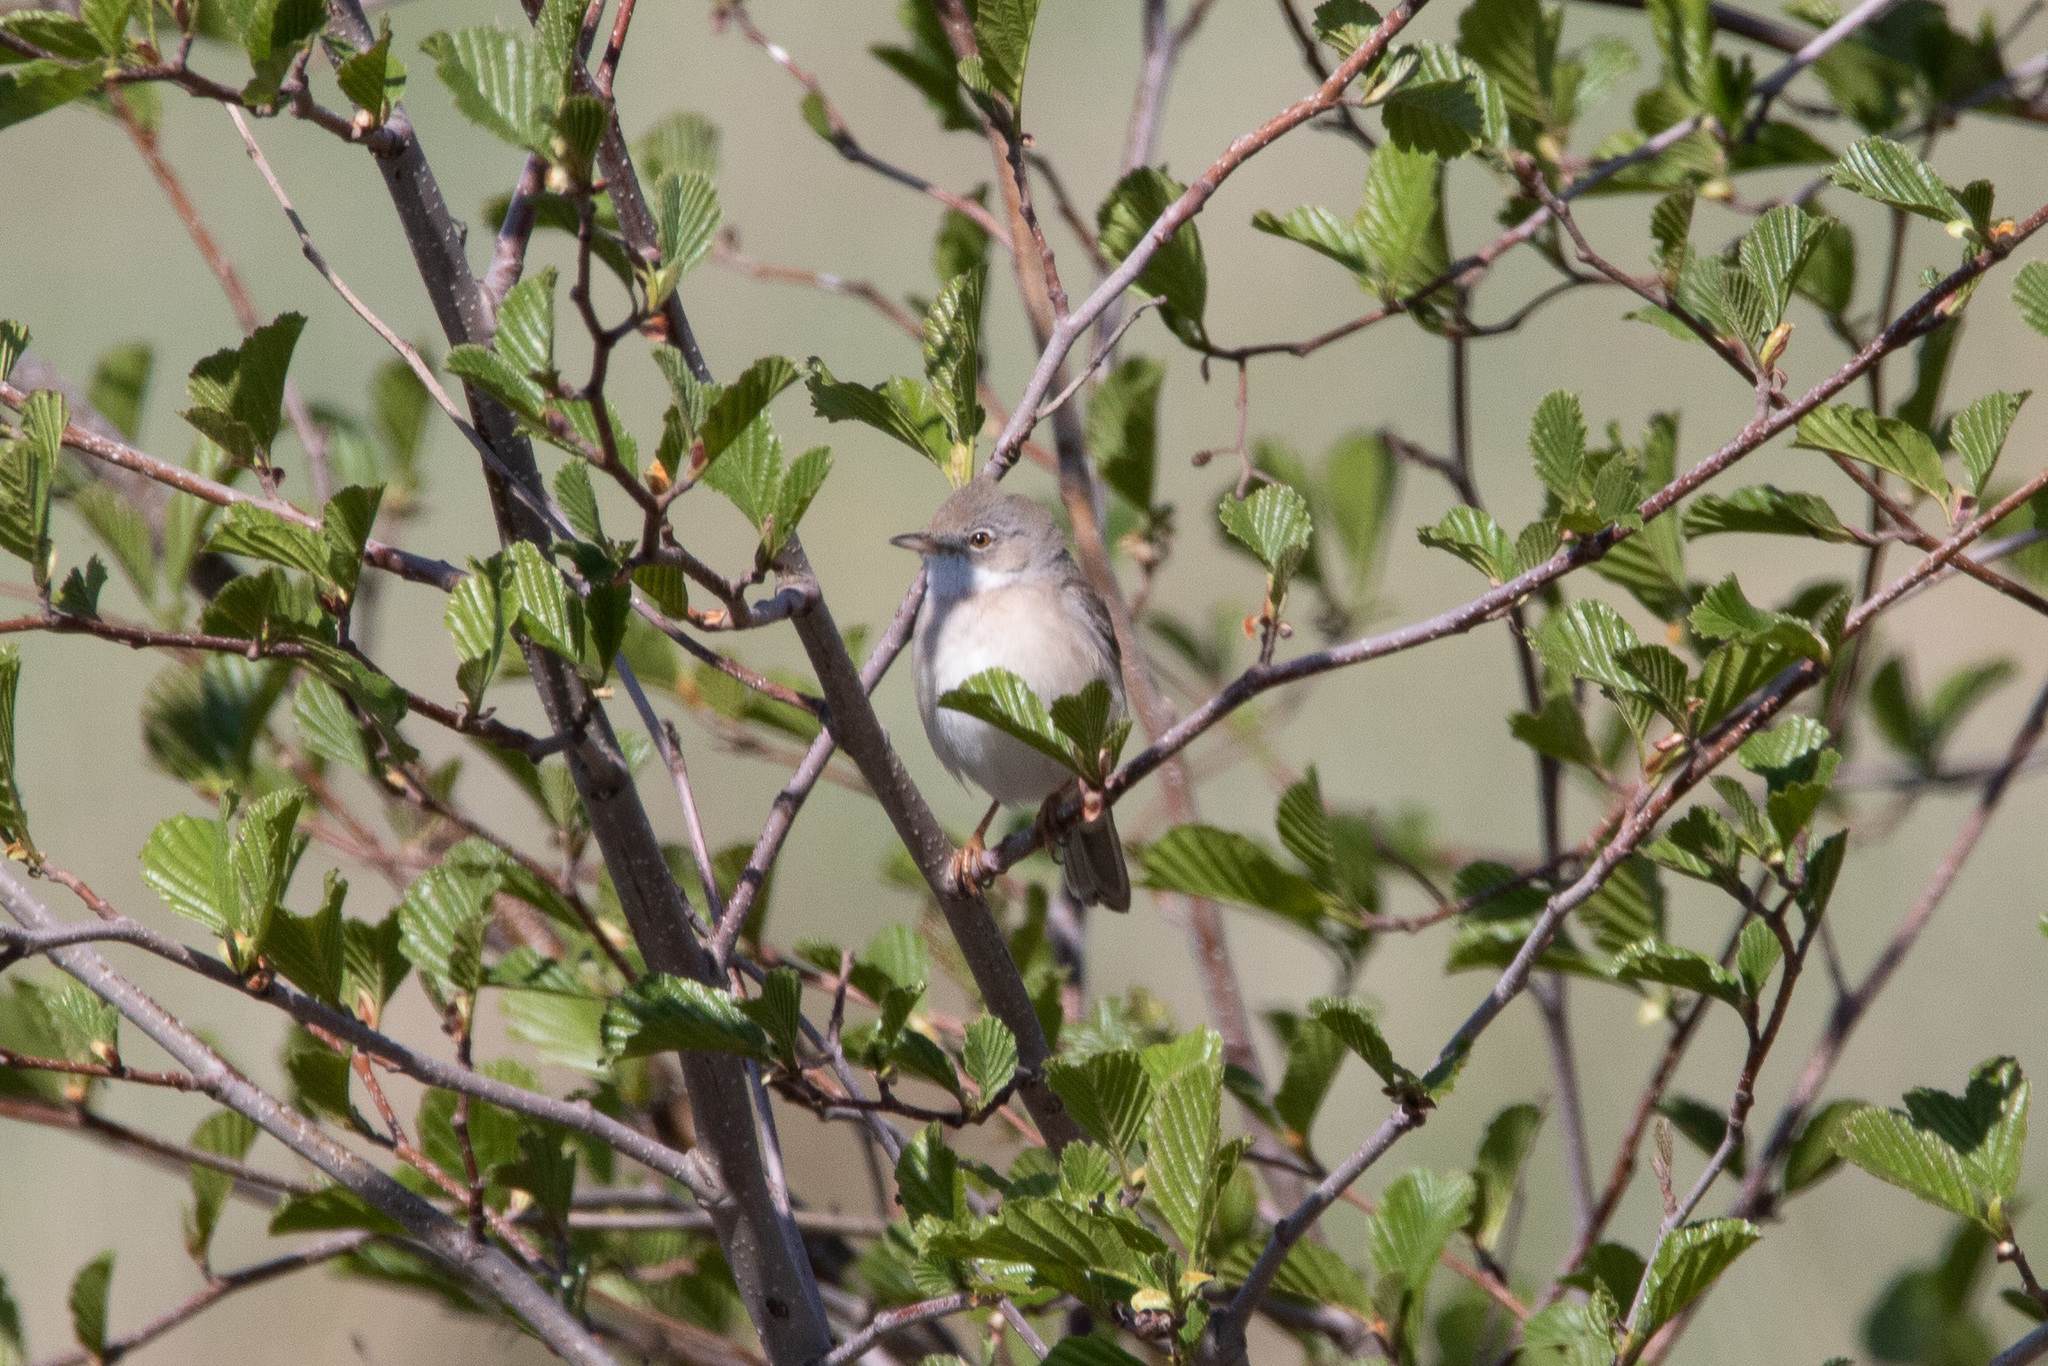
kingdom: Animalia
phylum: Chordata
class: Aves
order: Passeriformes
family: Sylviidae
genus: Sylvia
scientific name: Sylvia communis
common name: Common whitethroat
